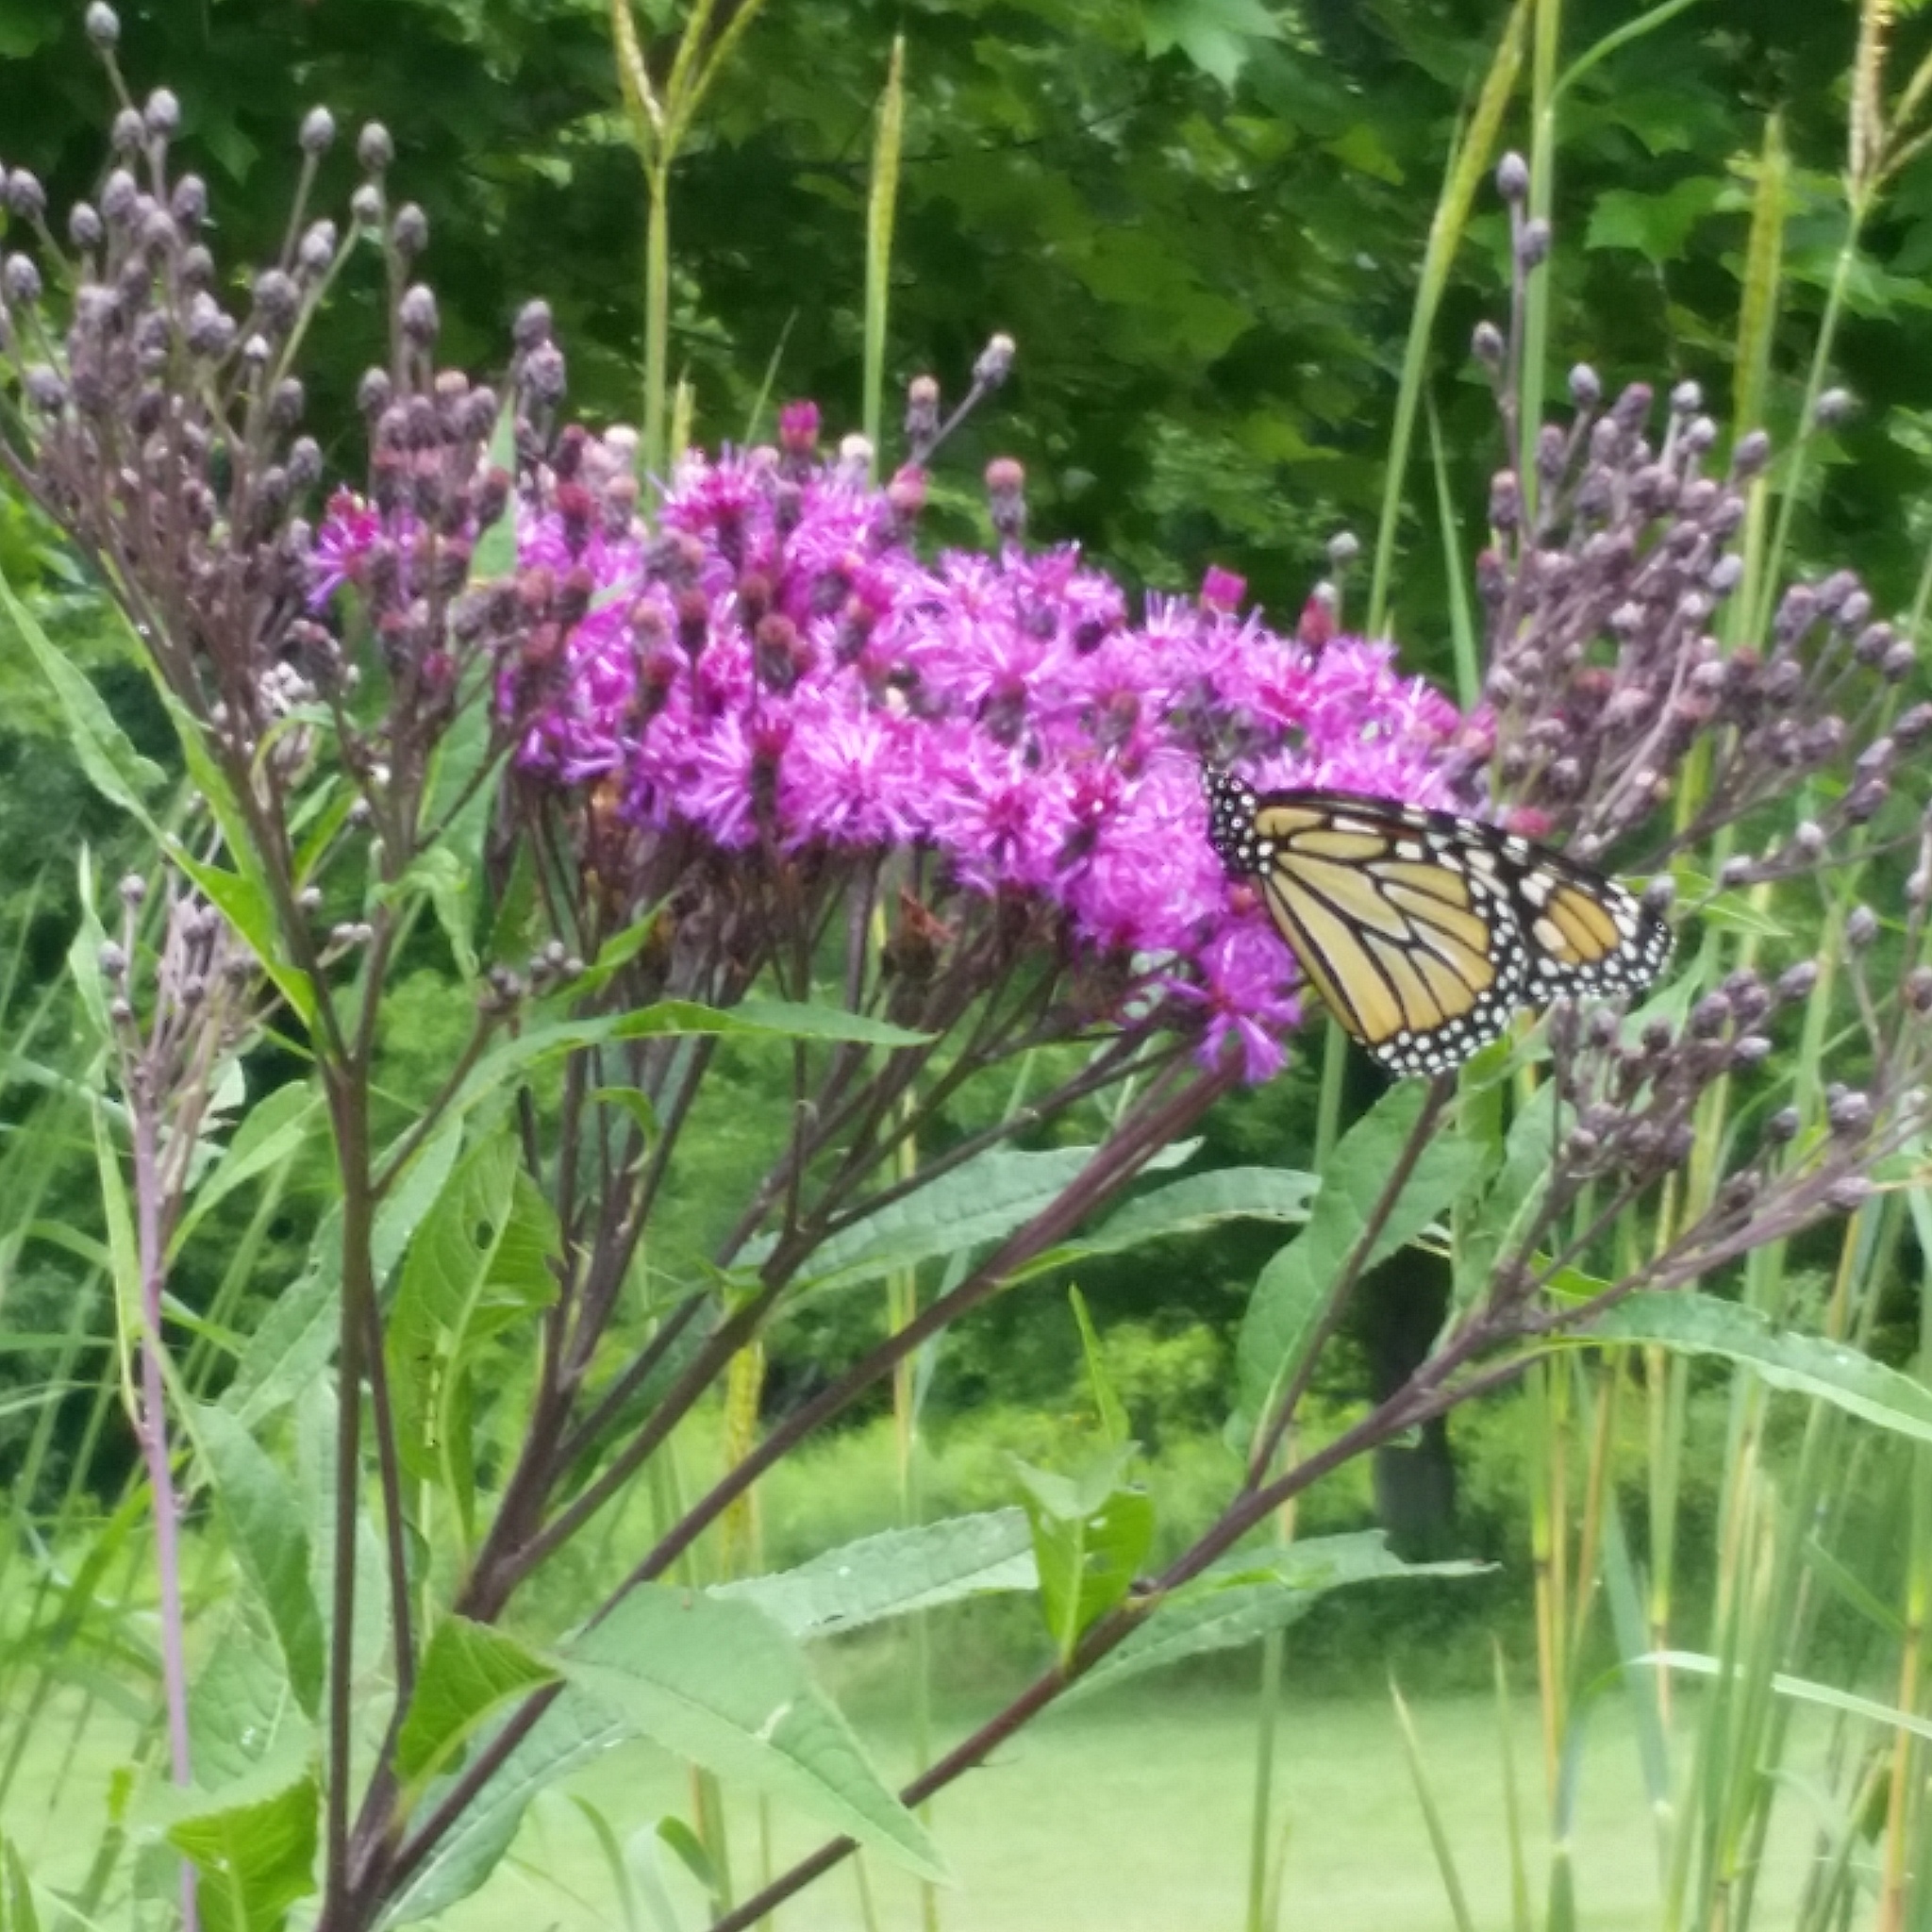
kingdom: Animalia
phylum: Arthropoda
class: Insecta
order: Lepidoptera
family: Nymphalidae
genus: Danaus
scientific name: Danaus plexippus
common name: Monarch
